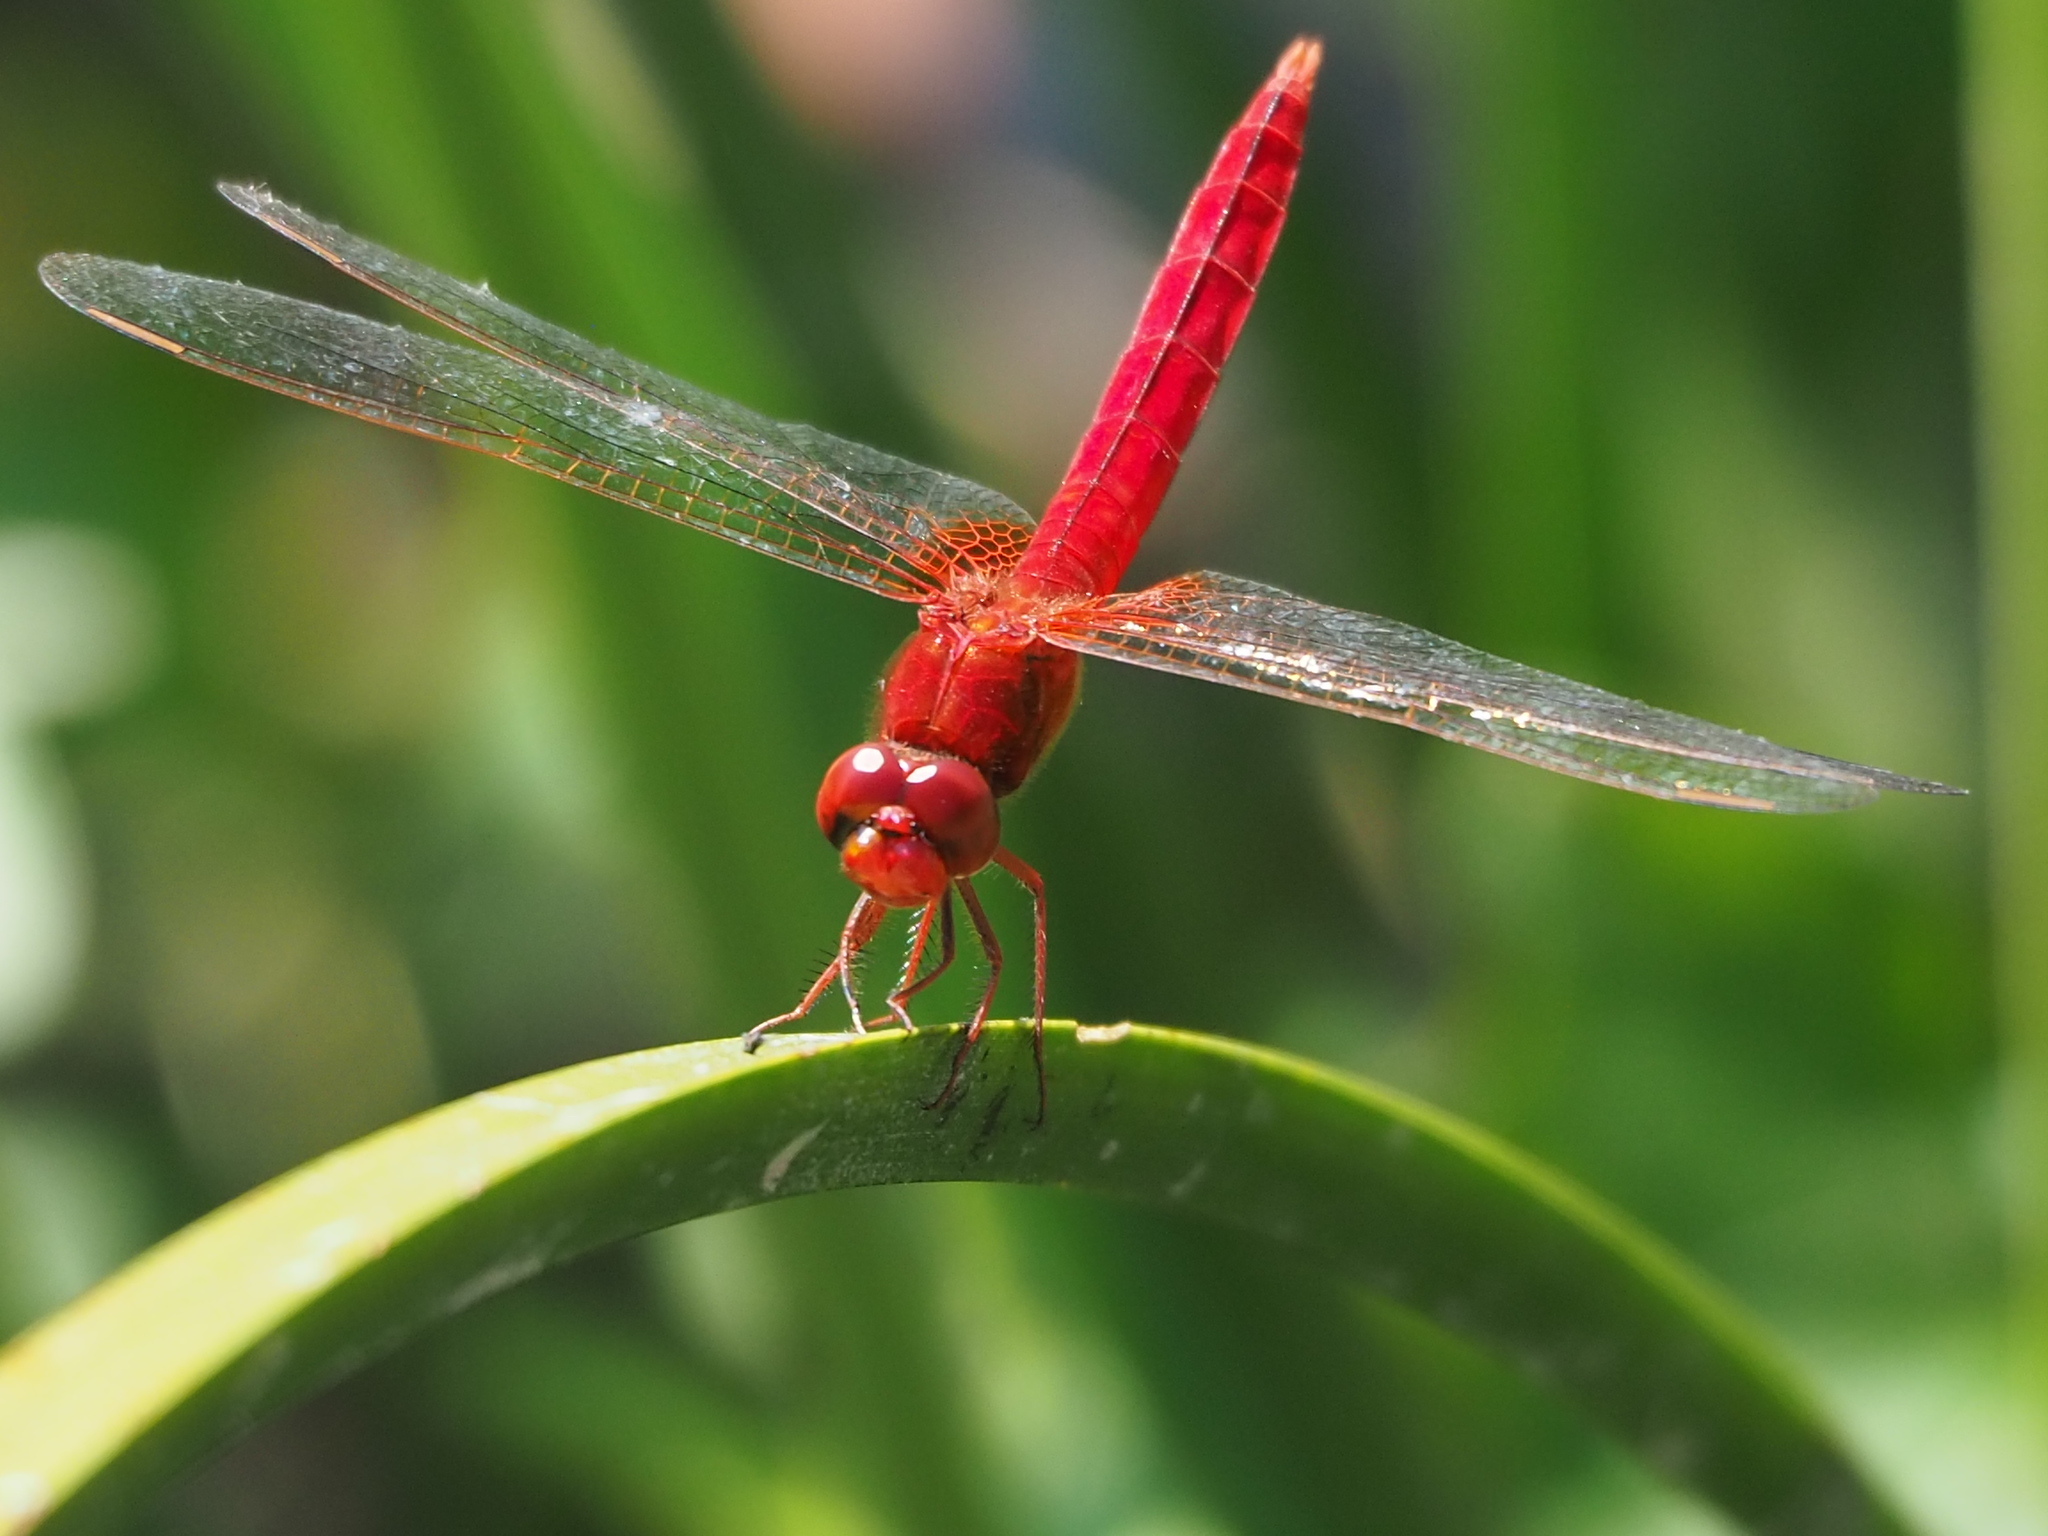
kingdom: Animalia
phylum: Arthropoda
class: Insecta
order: Odonata
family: Libellulidae
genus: Crocothemis
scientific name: Crocothemis servilia
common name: Scarlet skimmer
